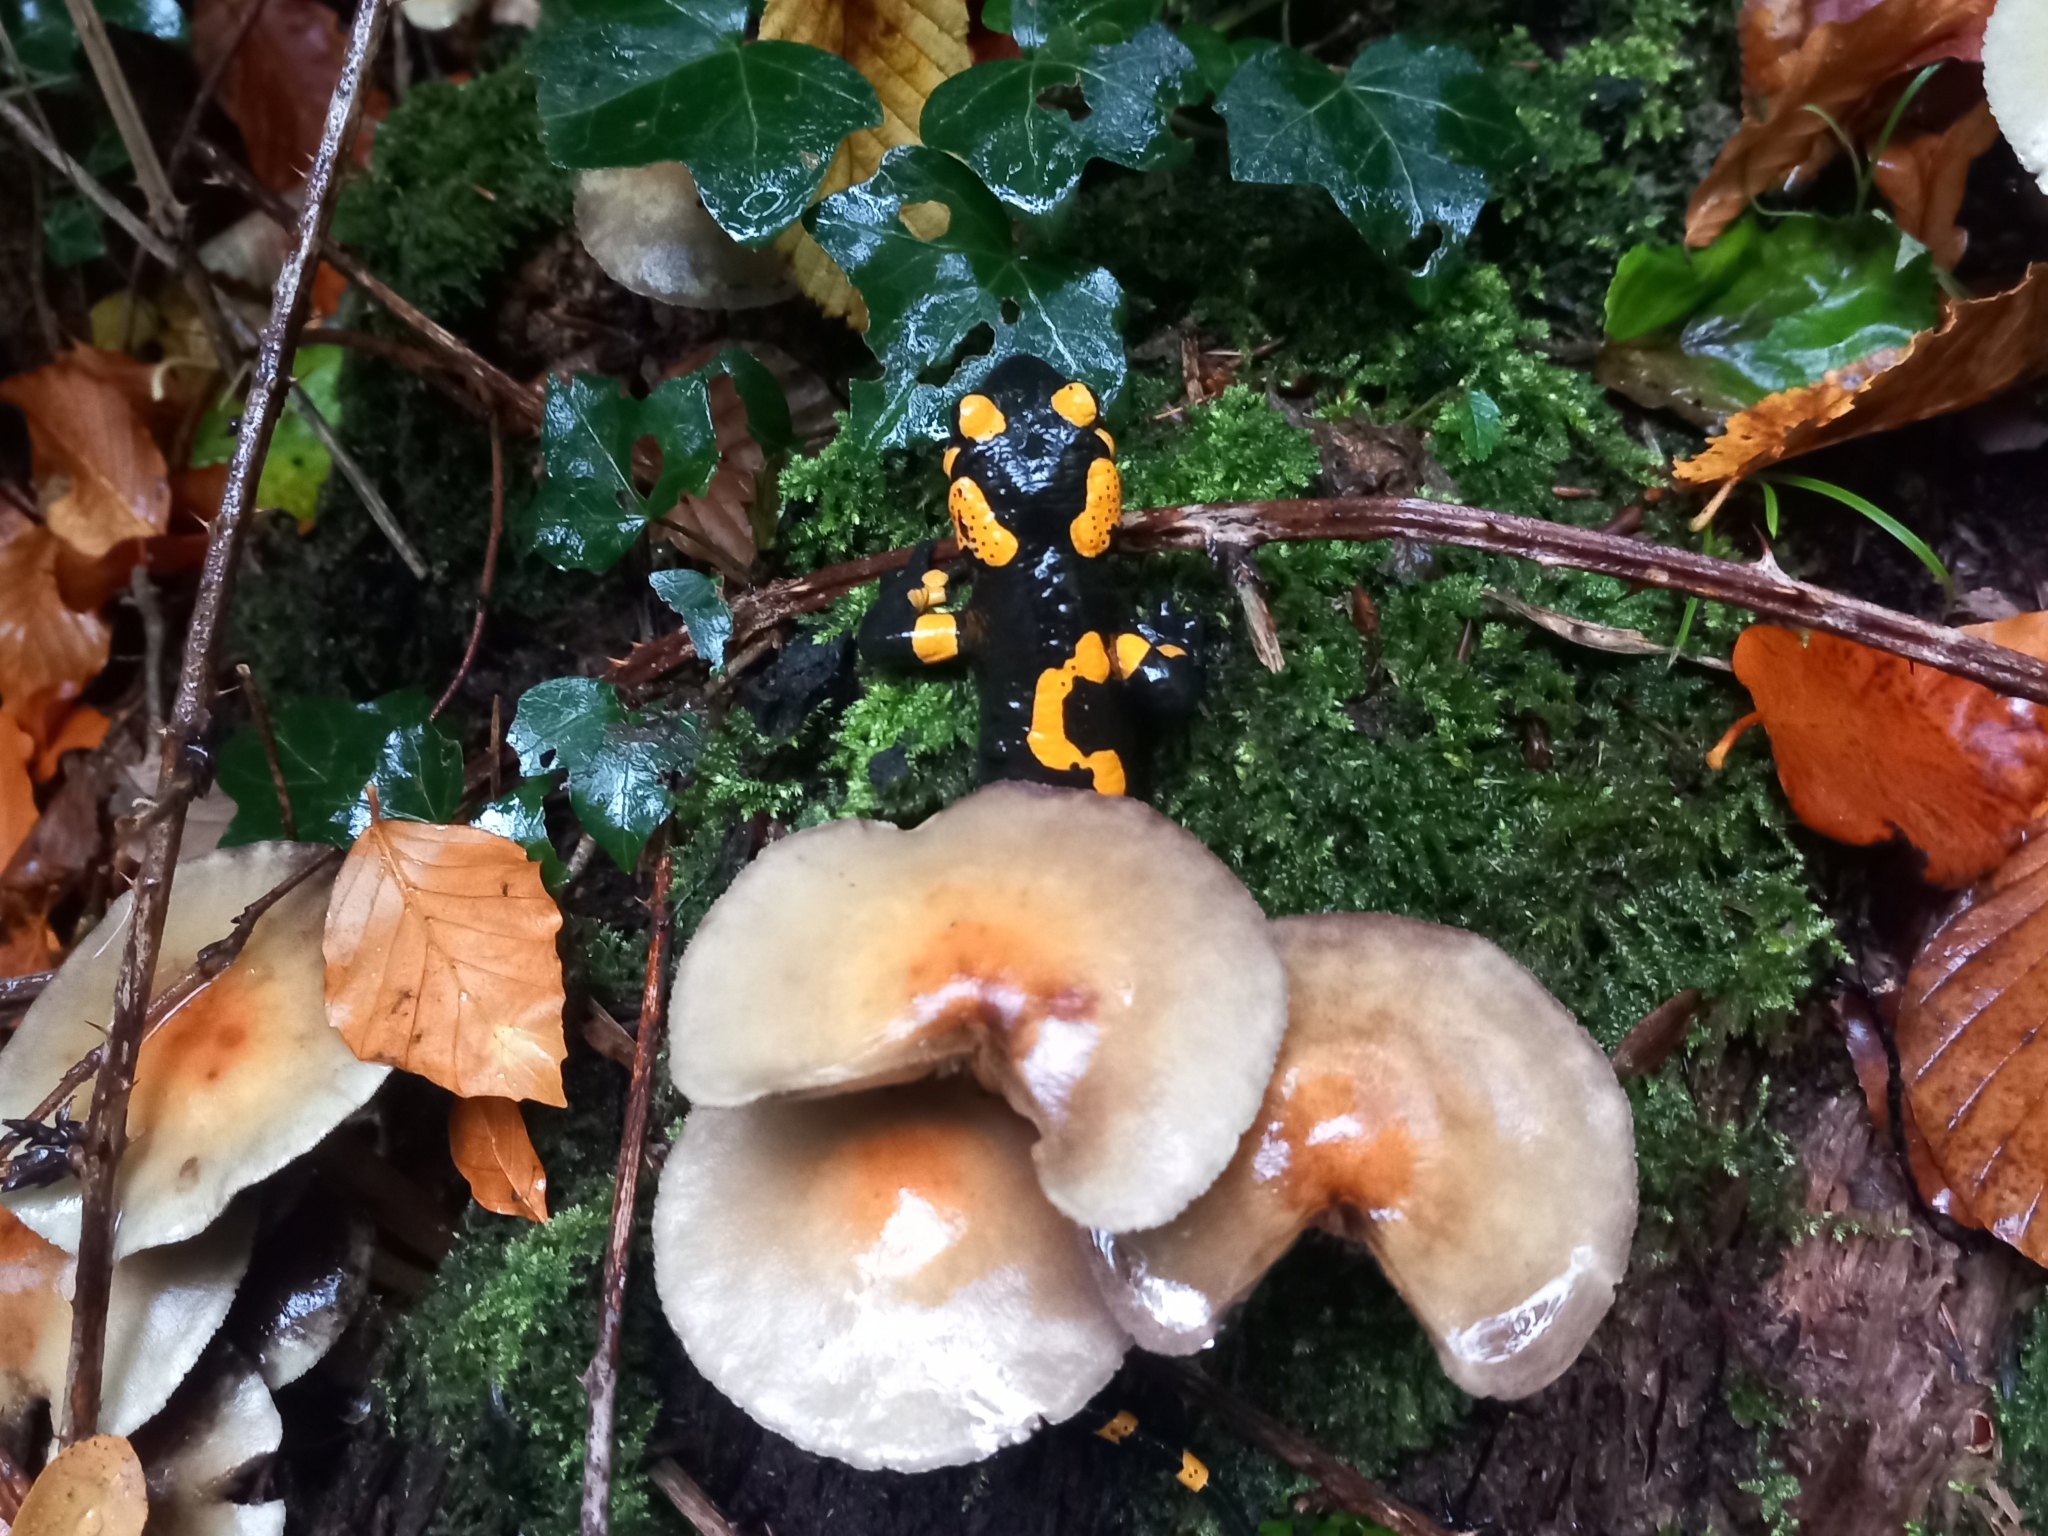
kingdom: Animalia
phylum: Chordata
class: Amphibia
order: Caudata
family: Salamandridae
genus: Salamandra
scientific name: Salamandra salamandra
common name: Fire salamander
